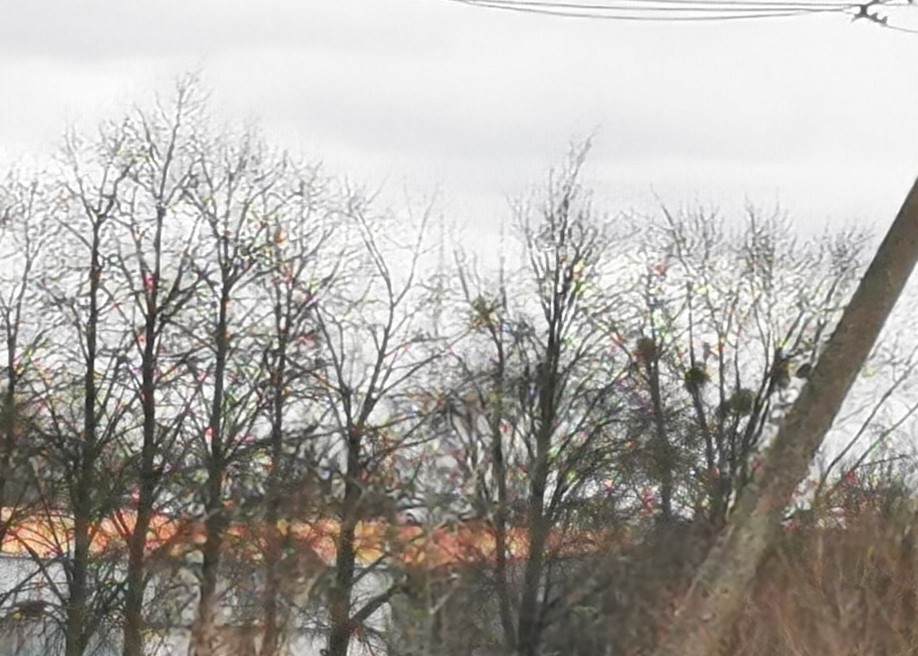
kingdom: Plantae
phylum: Tracheophyta
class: Magnoliopsida
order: Santalales
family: Viscaceae
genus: Viscum
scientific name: Viscum album
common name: Mistletoe
